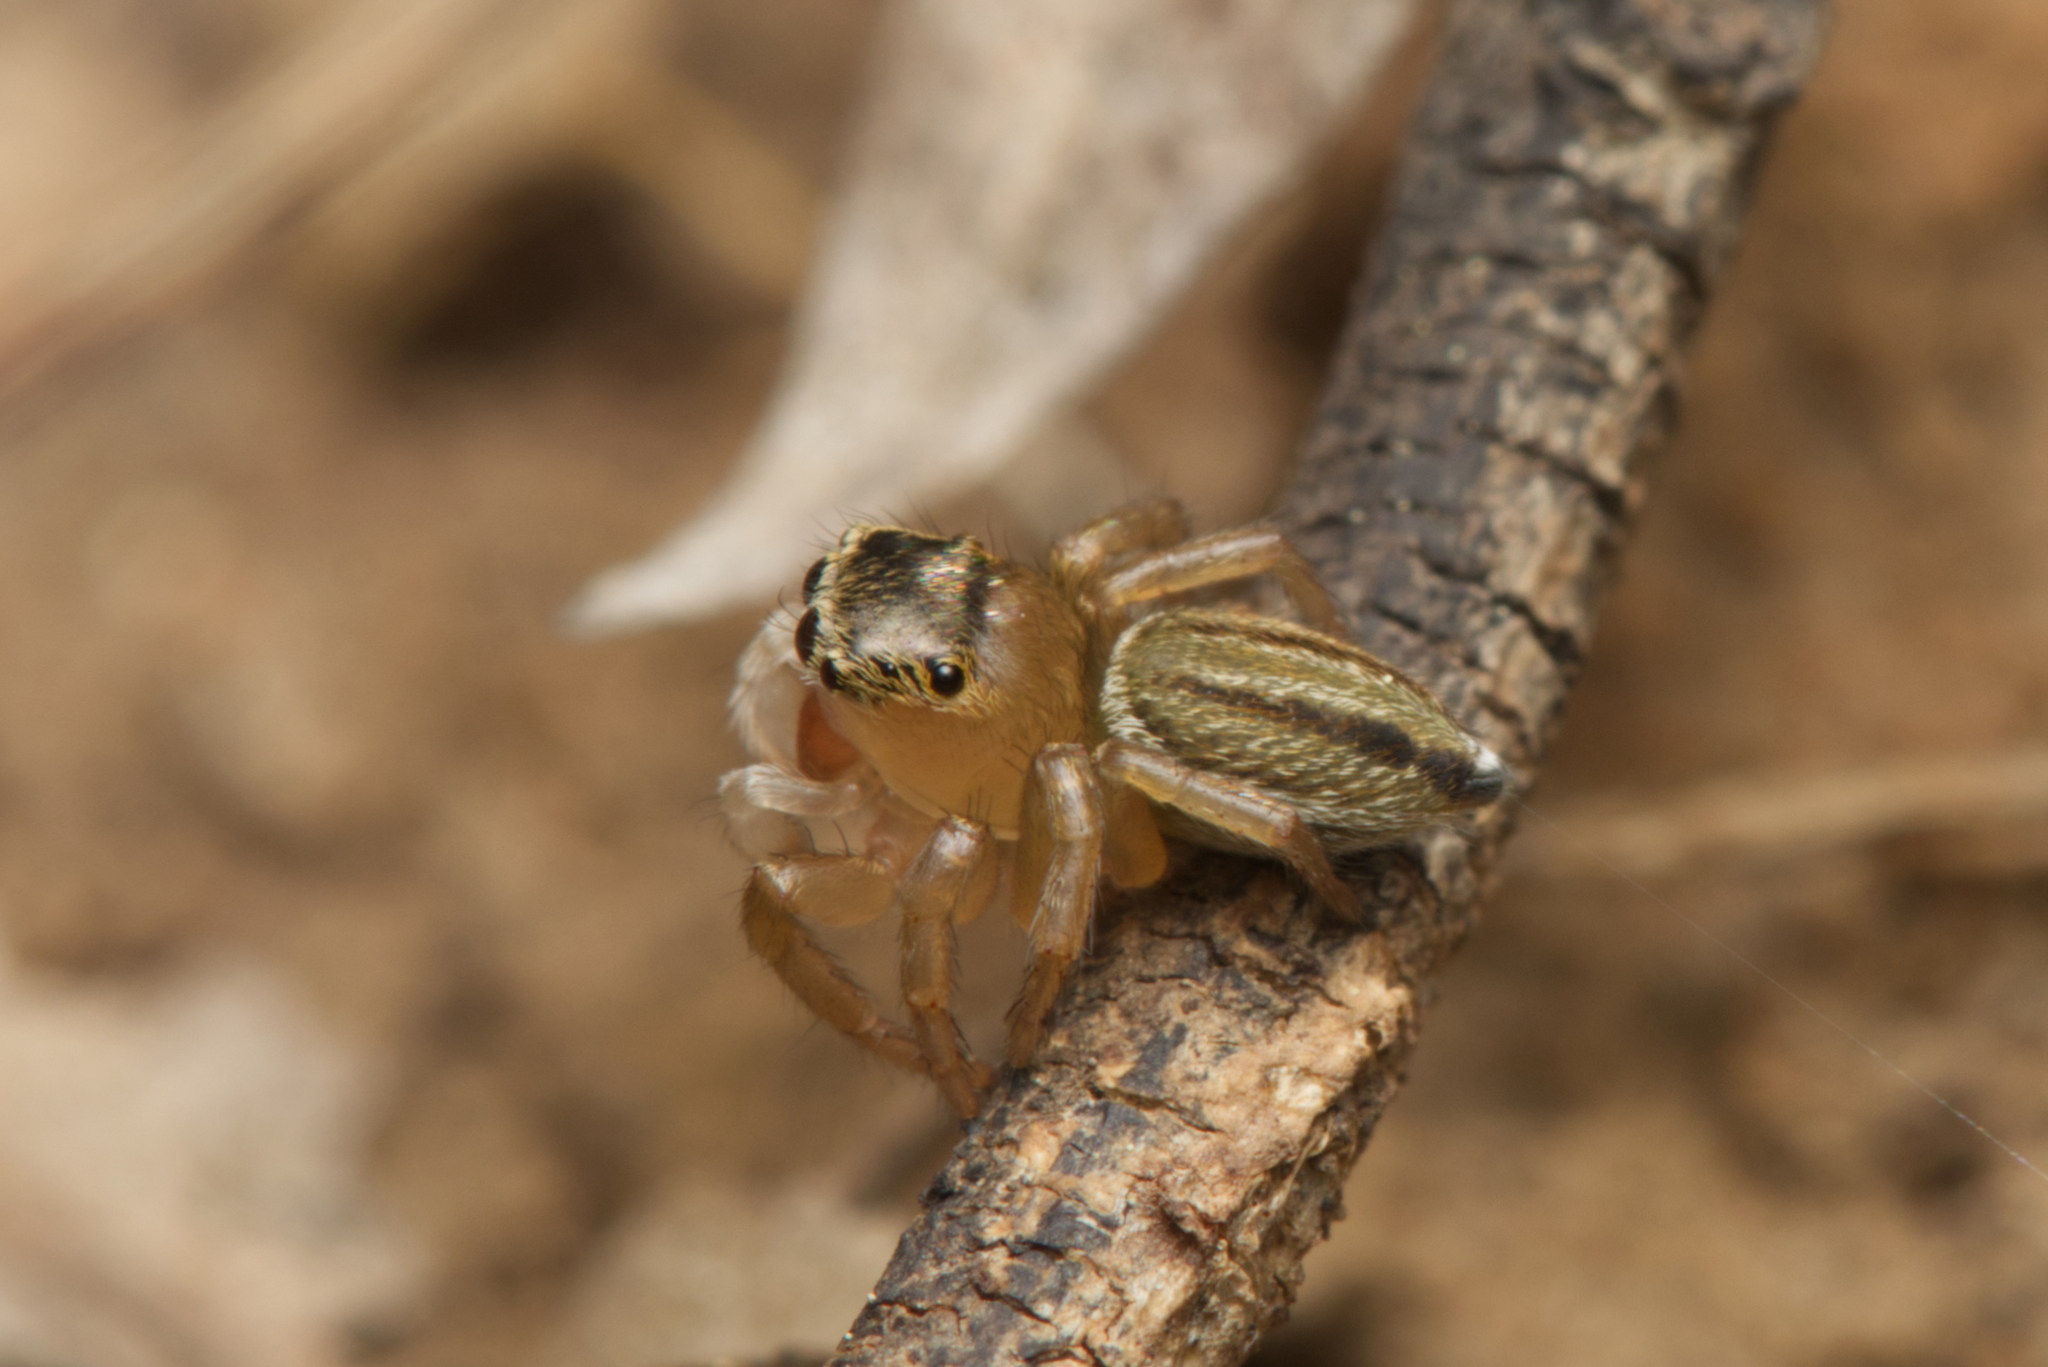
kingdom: Animalia
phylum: Arthropoda
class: Arachnida
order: Araneae
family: Salticidae
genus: Maratus
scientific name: Maratus scutulatus
